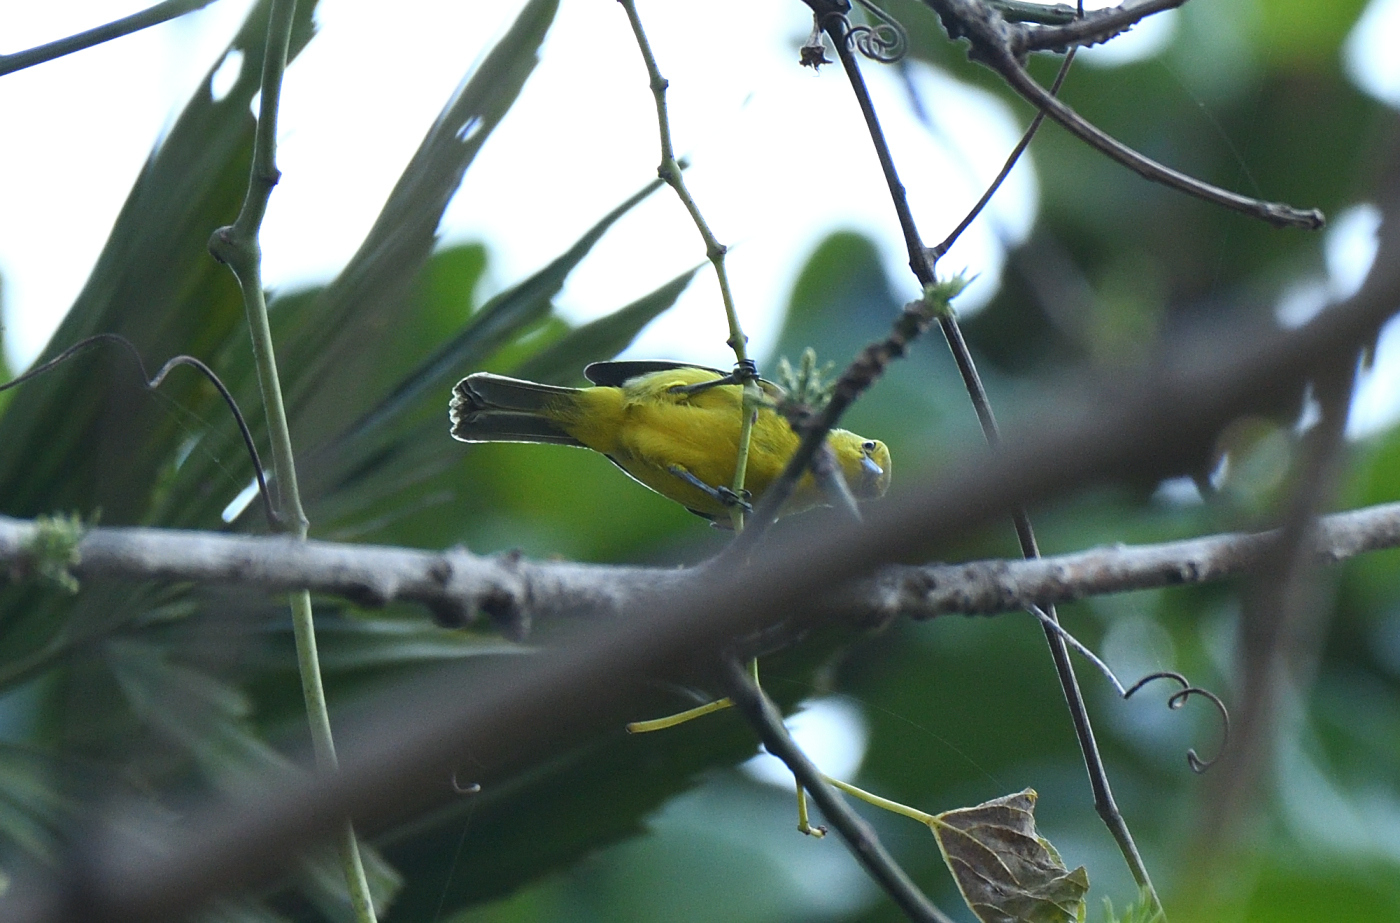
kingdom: Animalia
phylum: Chordata
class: Aves
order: Passeriformes
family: Aegithinidae
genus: Aegithina
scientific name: Aegithina tiphia
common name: Common iora
